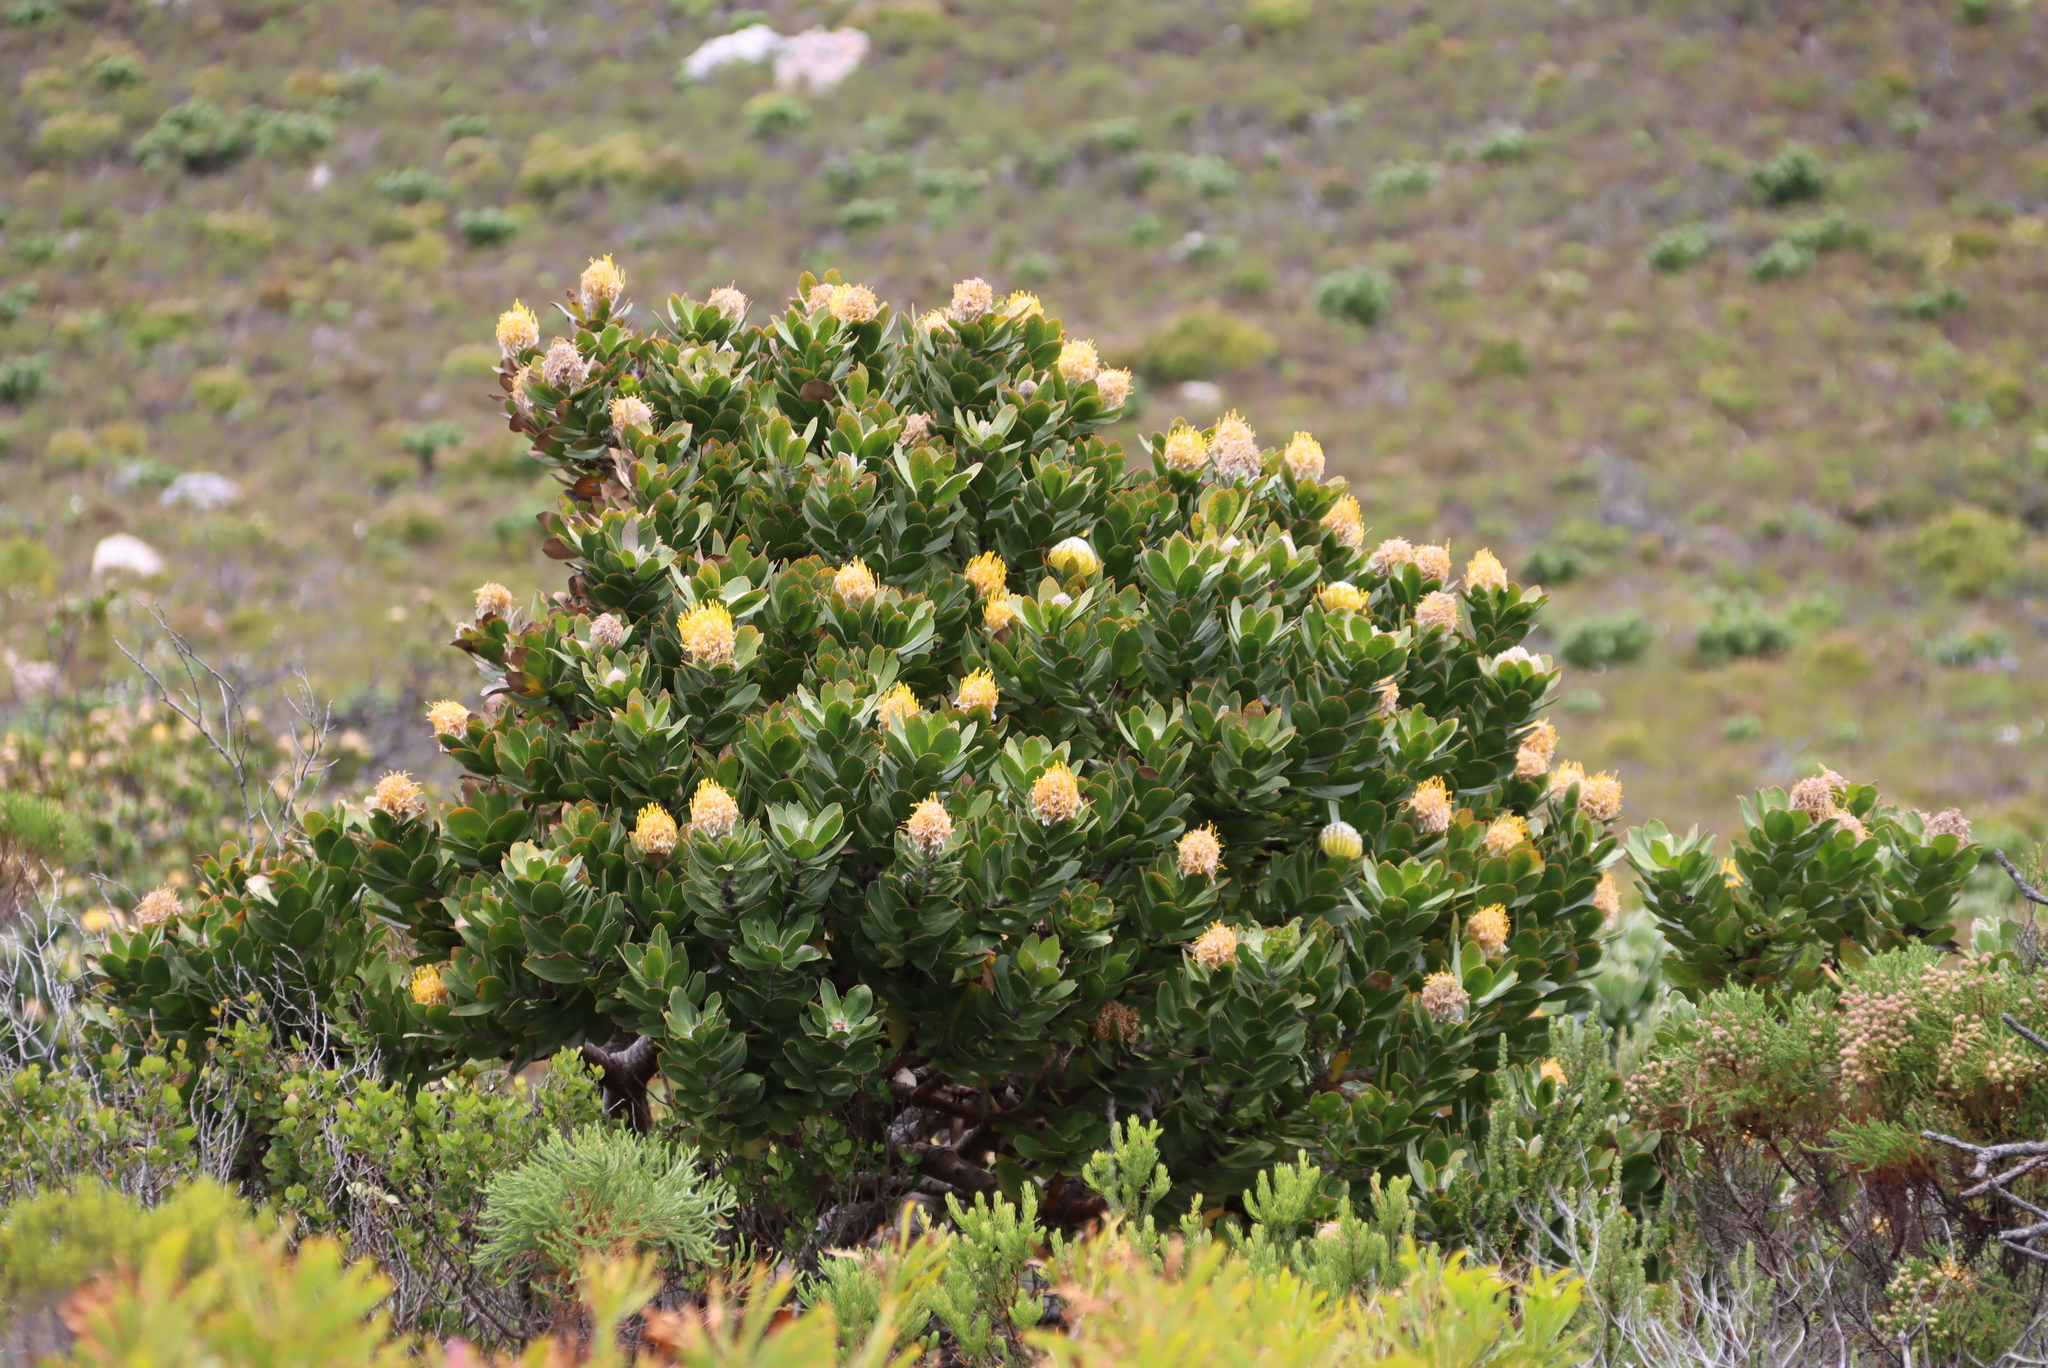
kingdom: Plantae
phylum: Tracheophyta
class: Magnoliopsida
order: Proteales
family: Proteaceae
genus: Leucospermum
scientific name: Leucospermum conocarpodendron
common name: Tree pincushion
